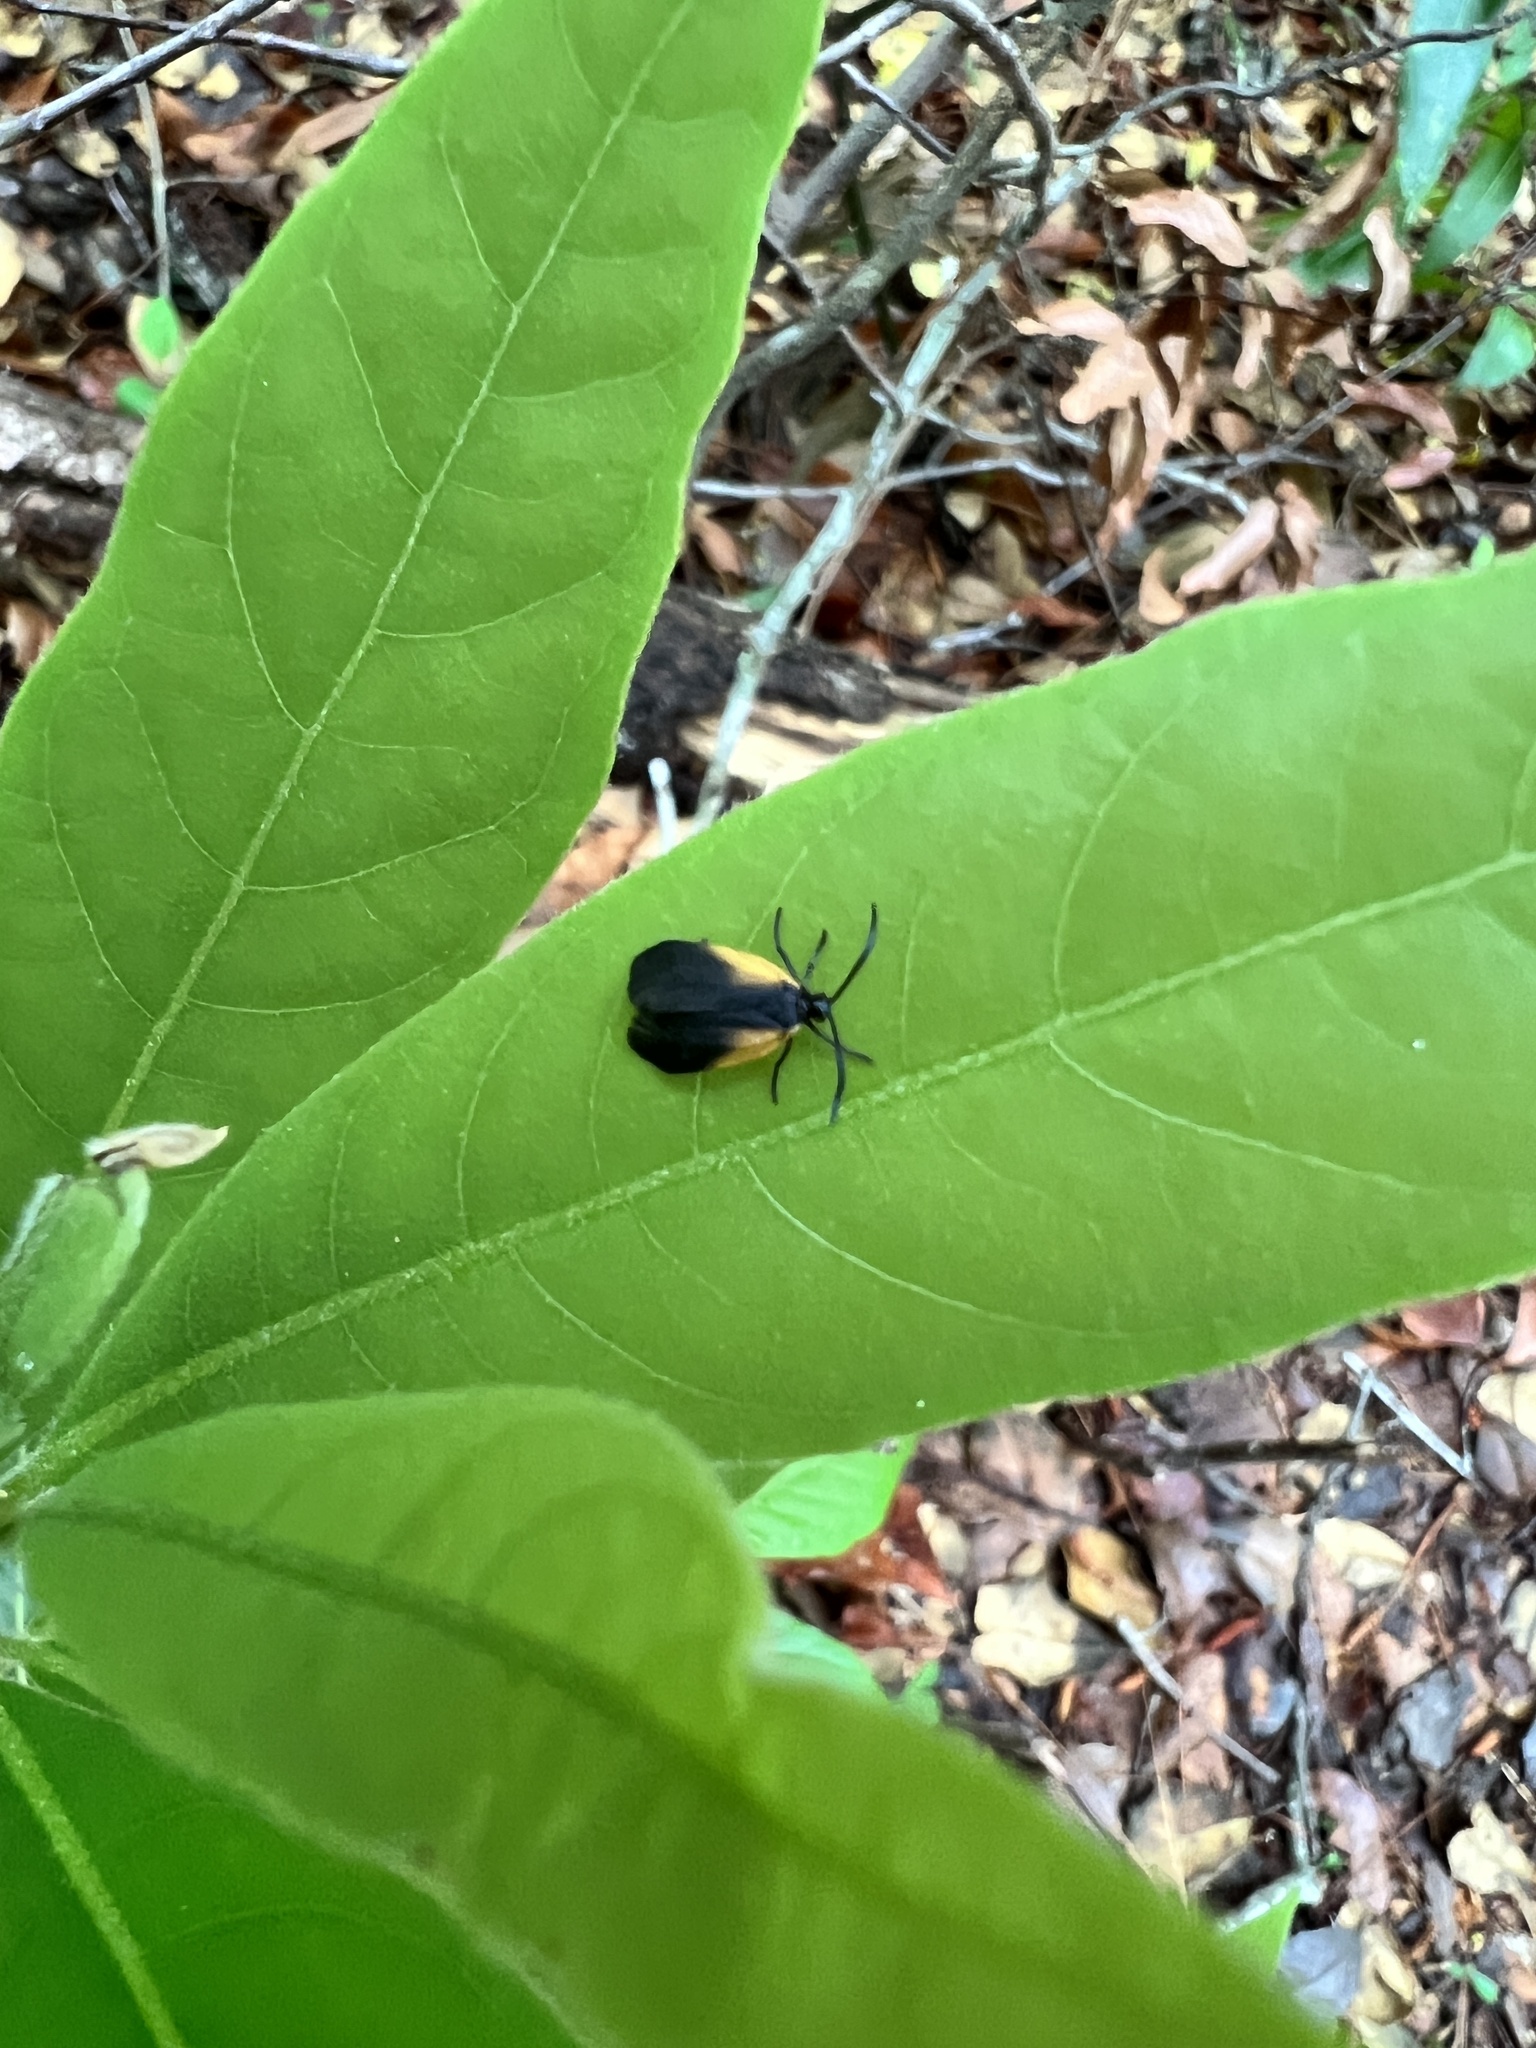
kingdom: Animalia
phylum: Arthropoda
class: Insecta
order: Lepidoptera
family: Zygaenidae
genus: Malthaca
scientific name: Malthaca dimidiata
